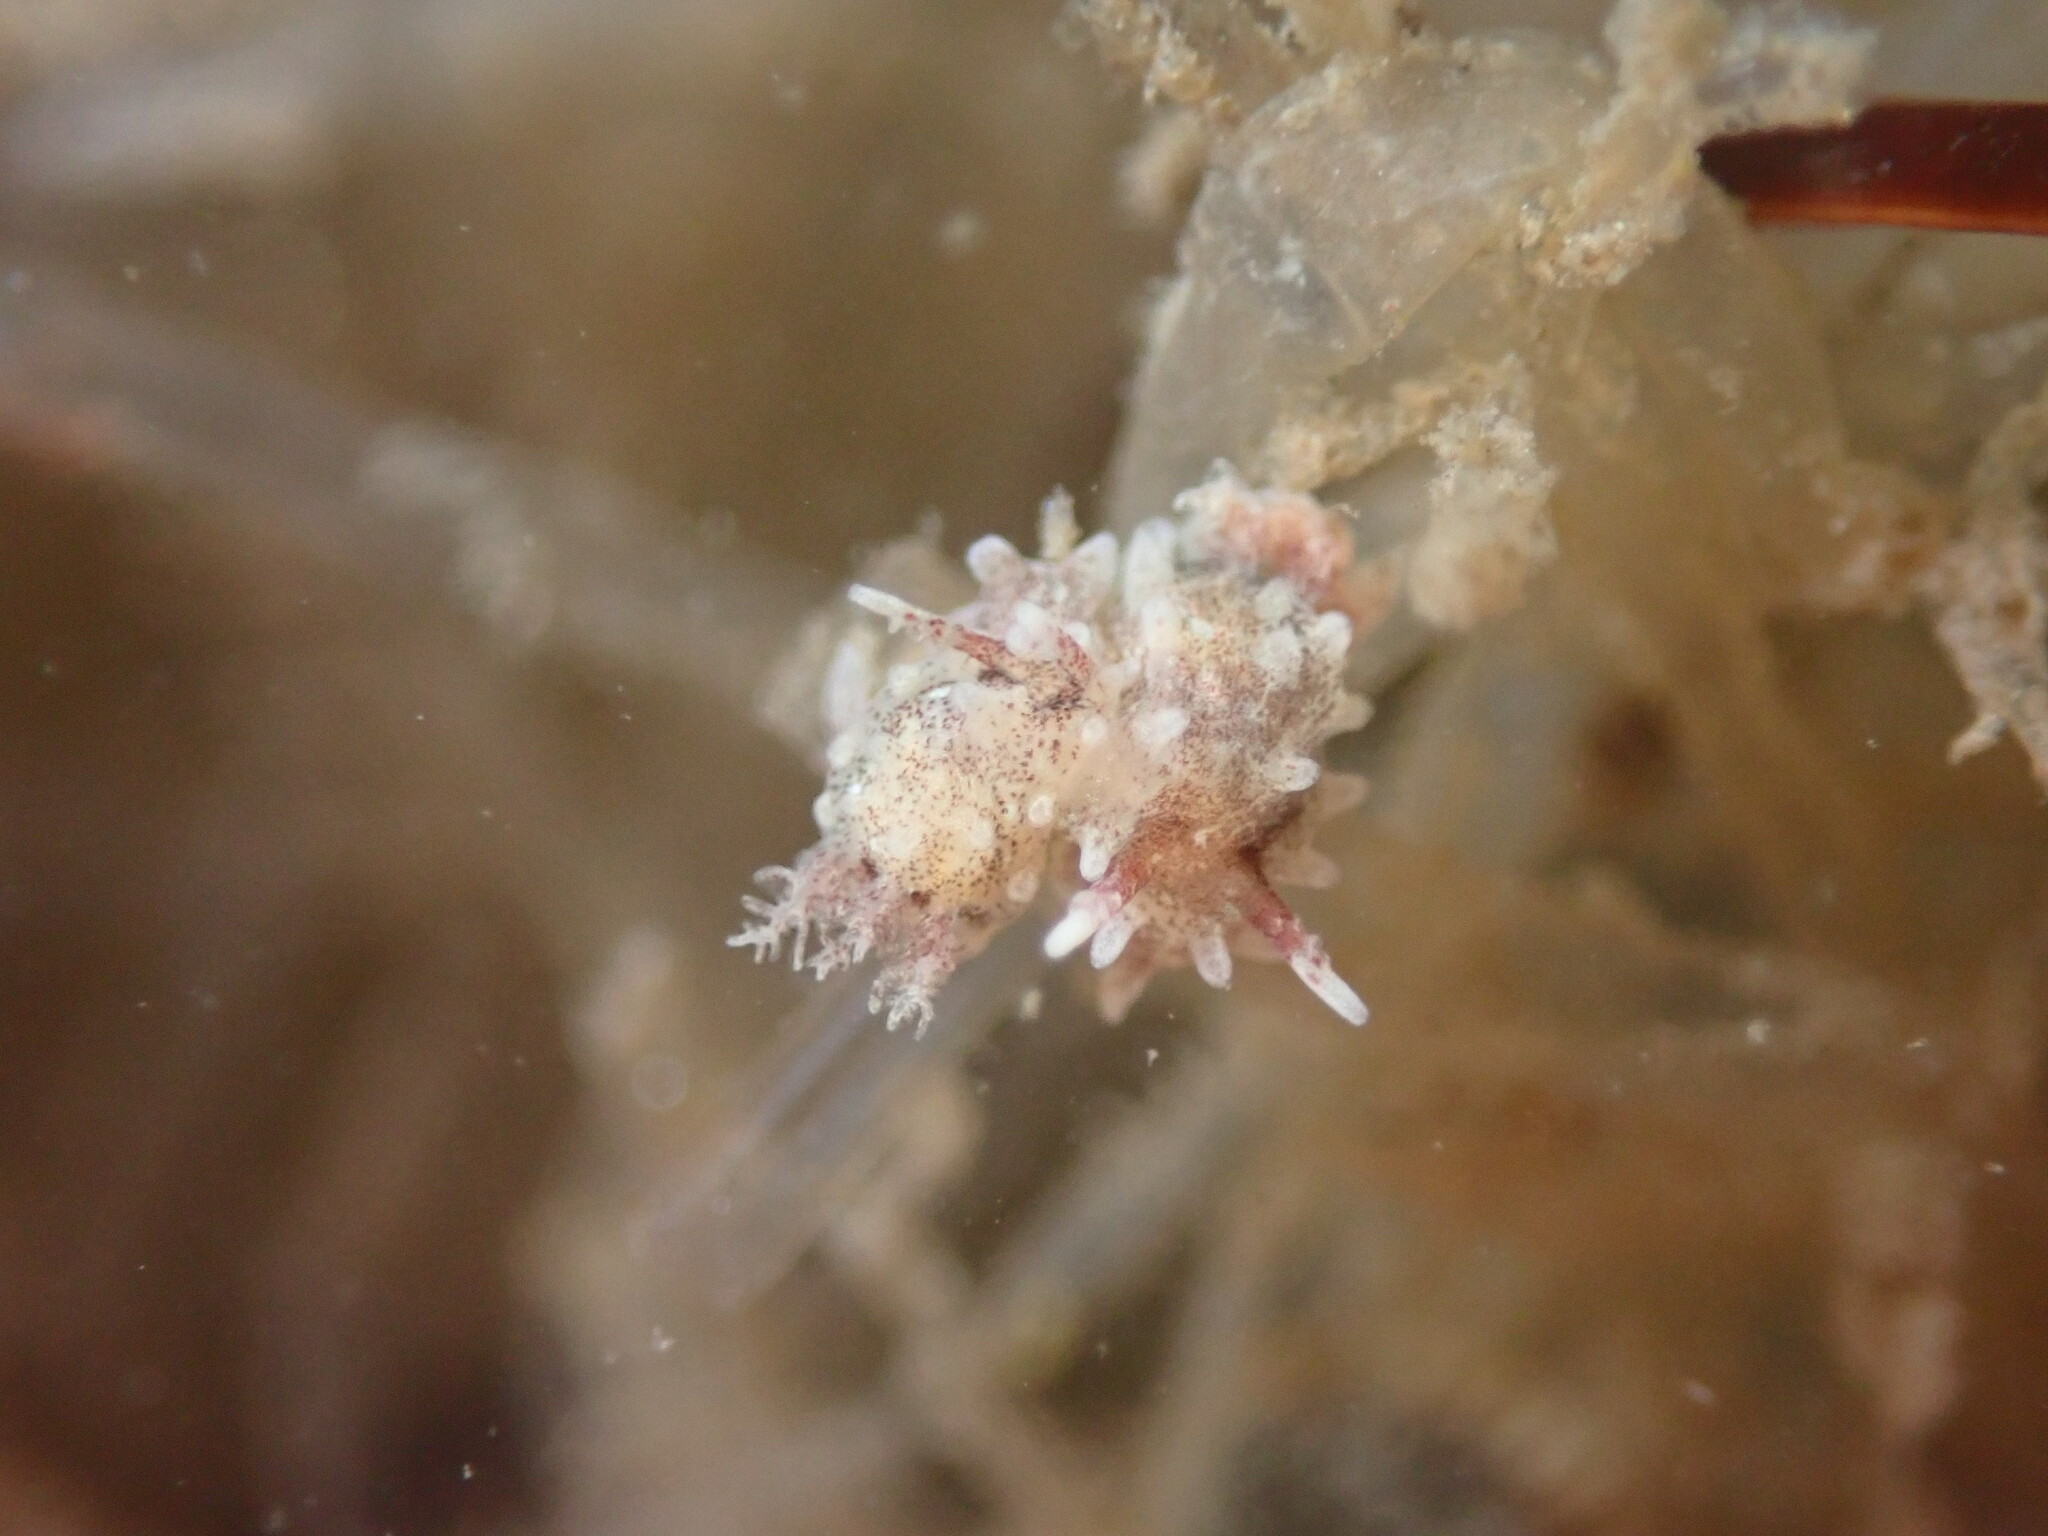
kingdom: Animalia
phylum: Mollusca
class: Gastropoda
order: Nudibranchia
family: Goniodorididae
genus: Okenia
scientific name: Okenia
